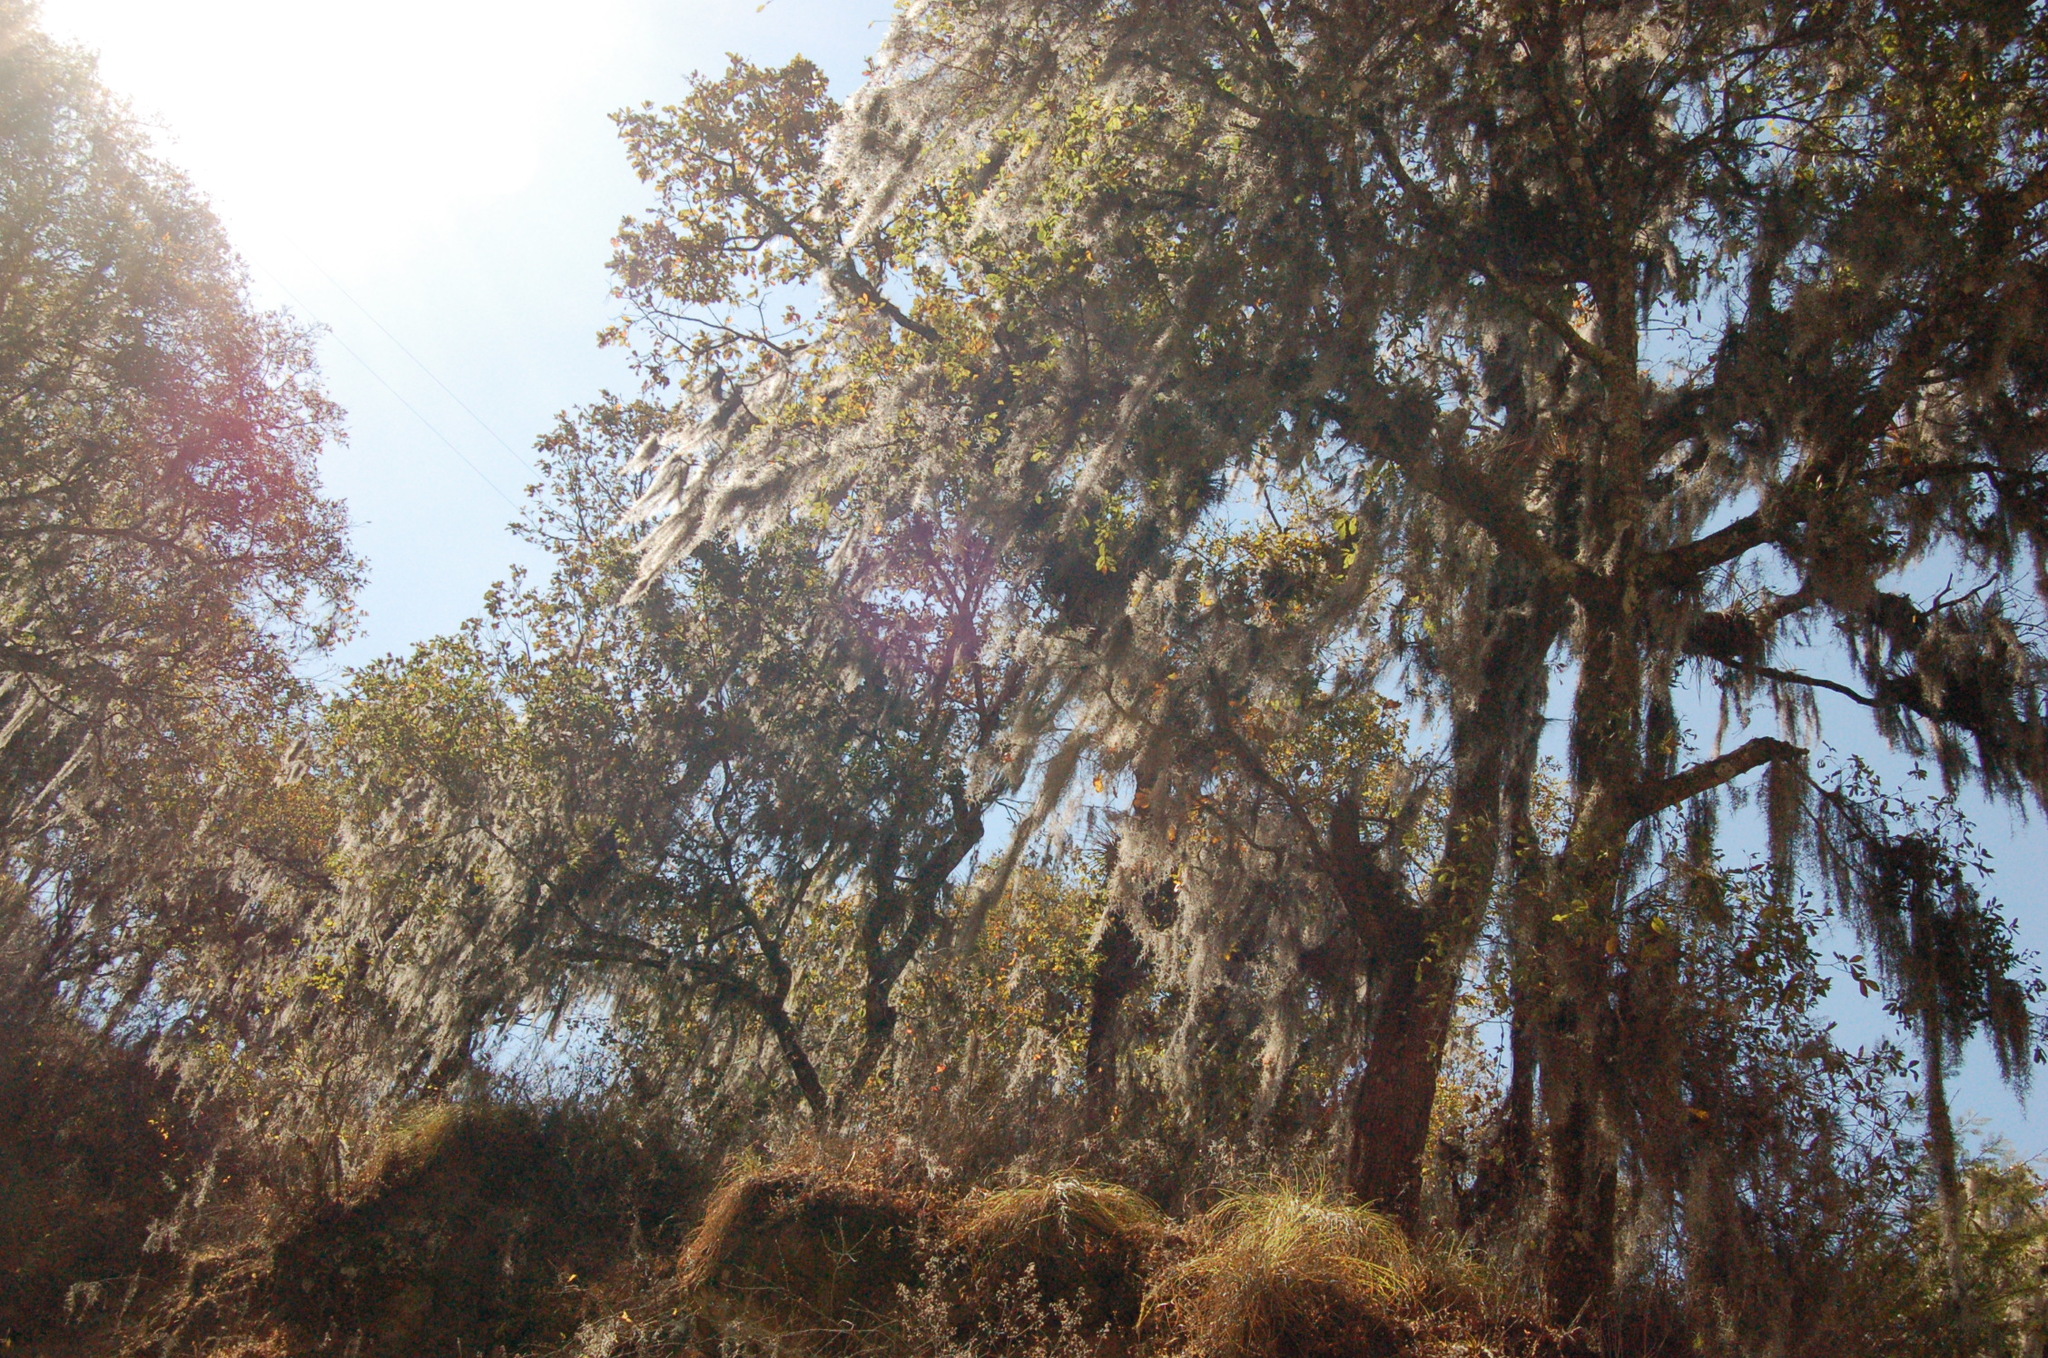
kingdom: Plantae
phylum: Tracheophyta
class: Magnoliopsida
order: Fagales
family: Fagaceae
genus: Quercus
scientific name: Quercus castanea
